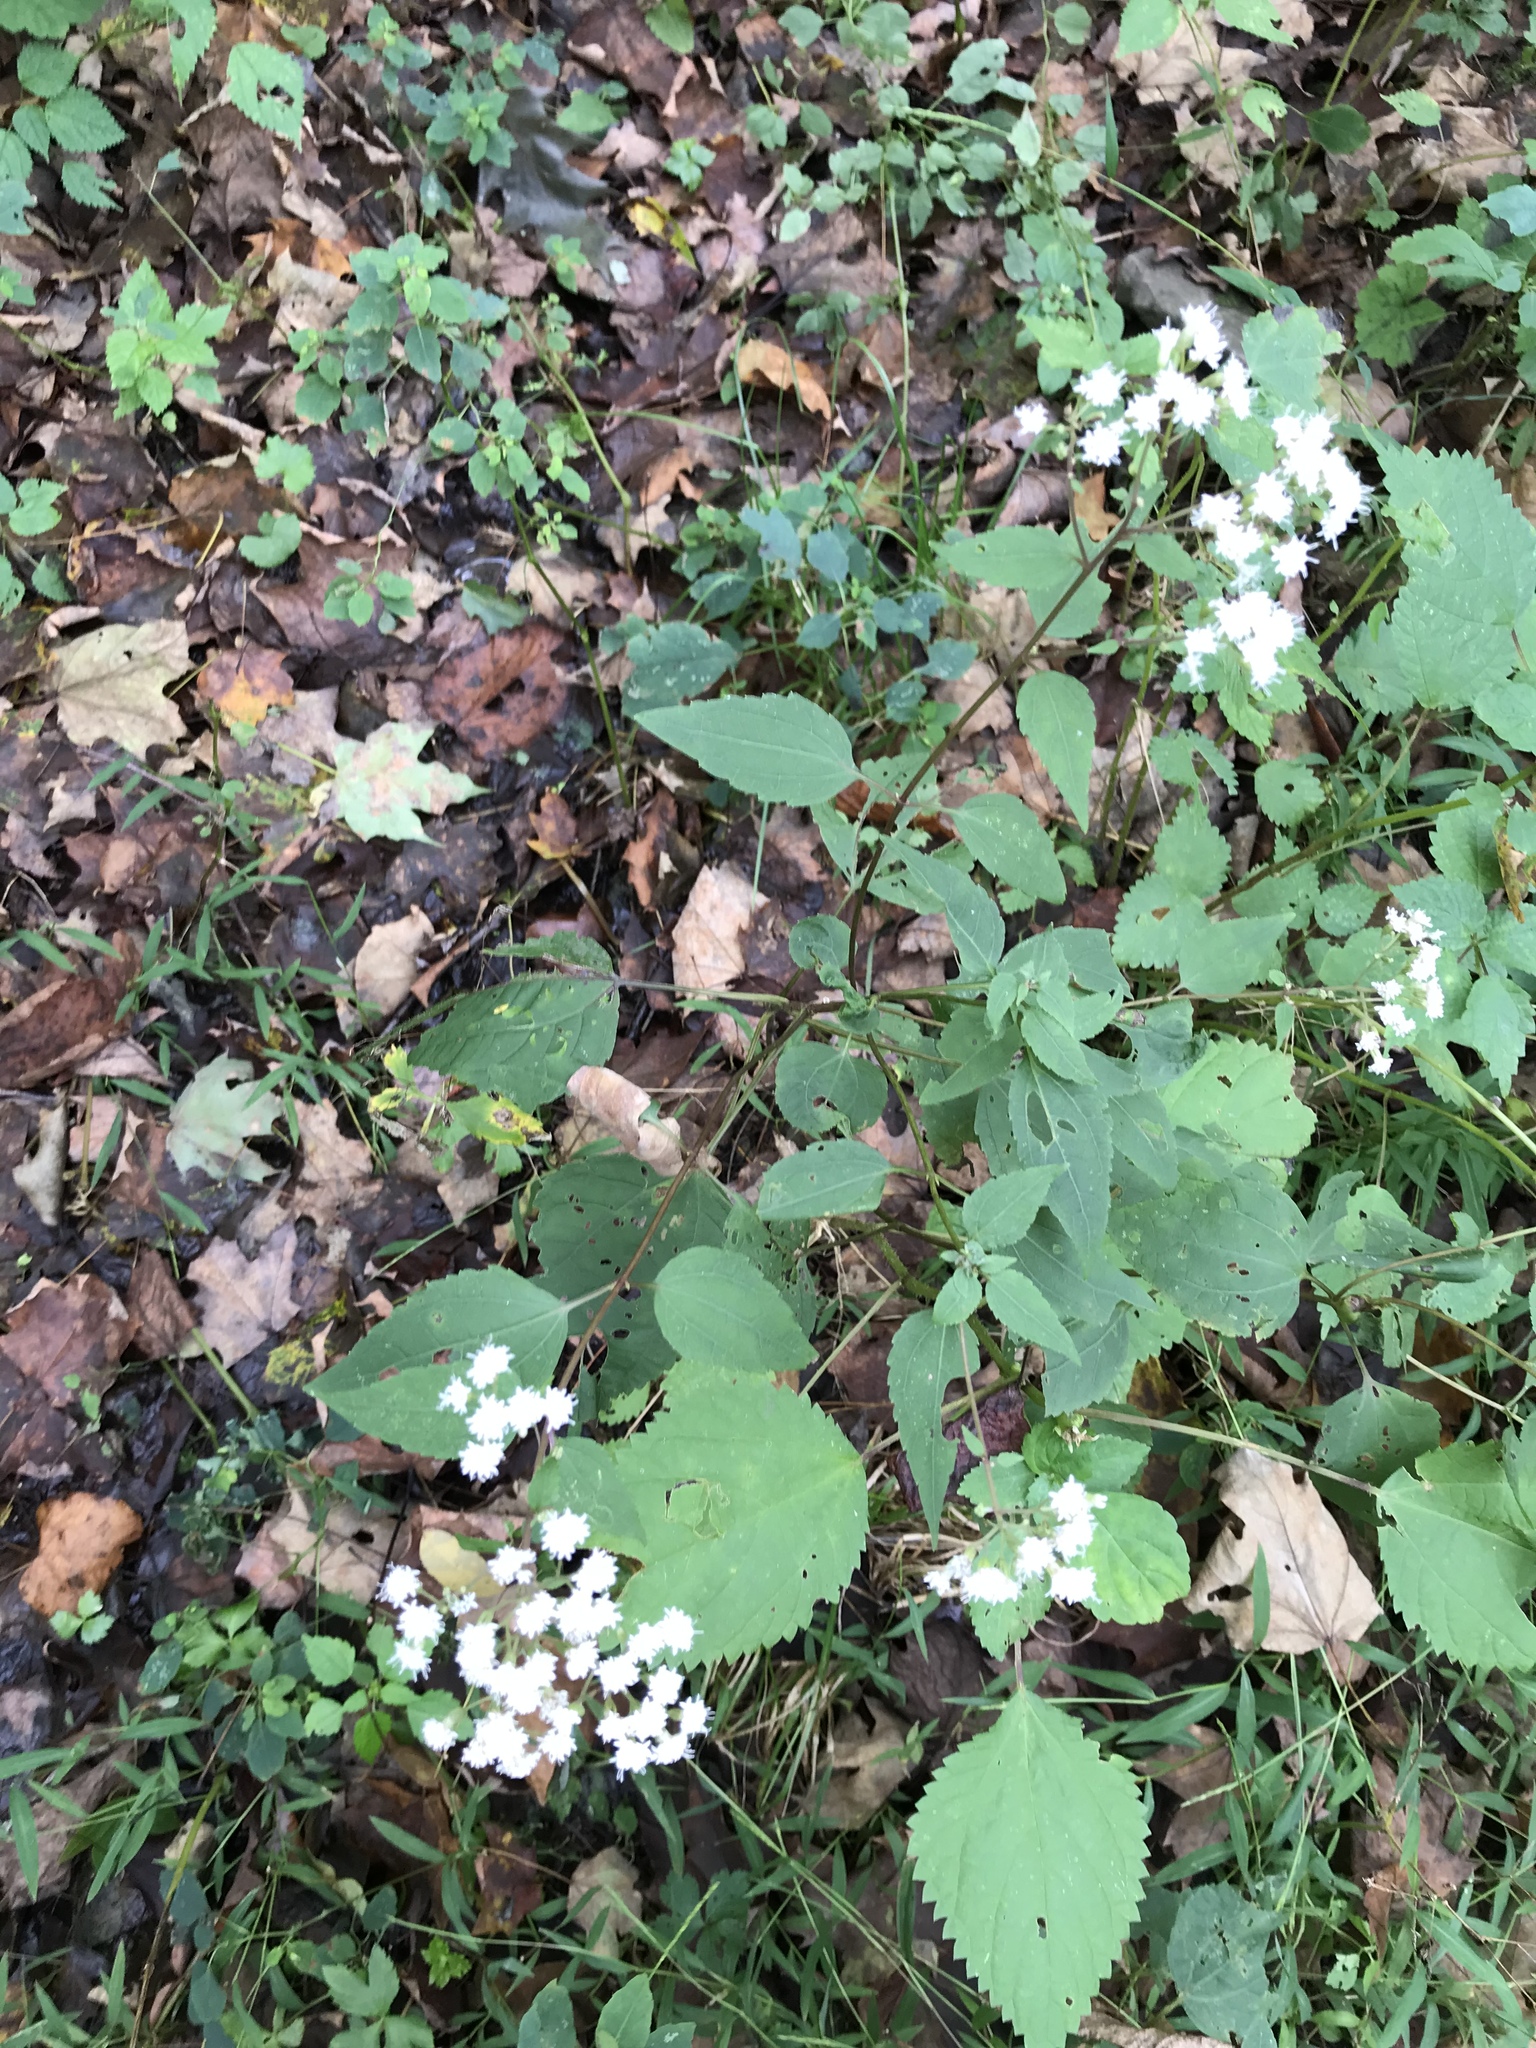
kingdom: Plantae
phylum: Tracheophyta
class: Magnoliopsida
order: Asterales
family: Asteraceae
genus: Ageratina
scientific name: Ageratina altissima
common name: White snakeroot
